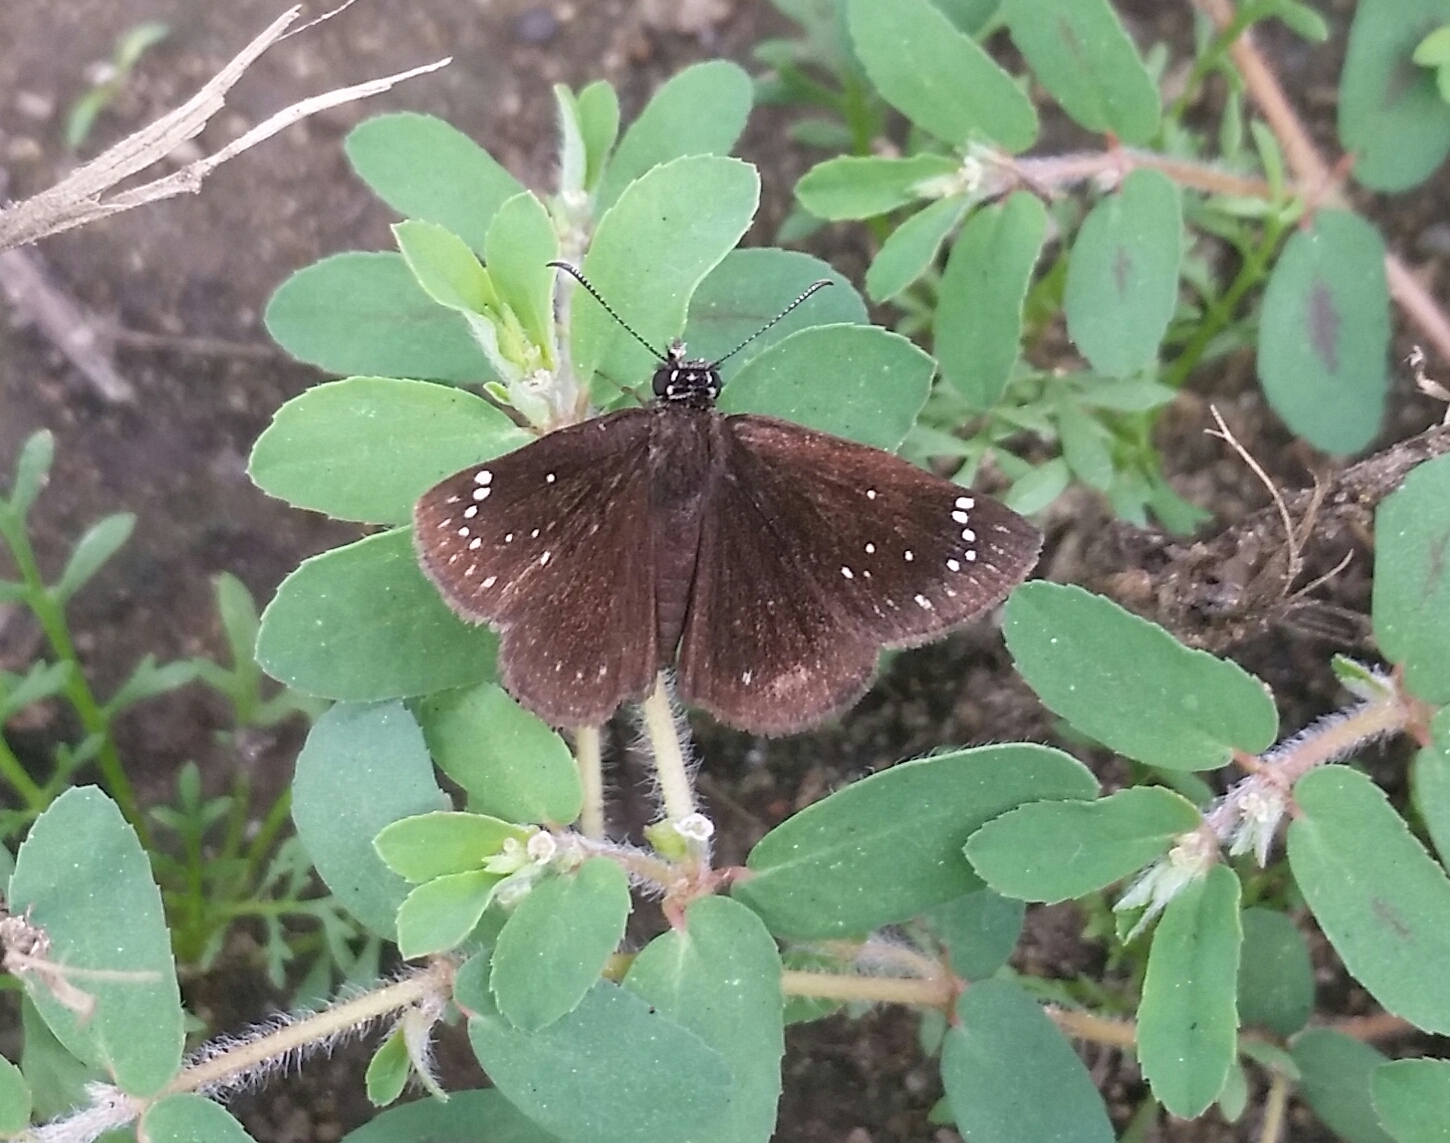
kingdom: Animalia
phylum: Arthropoda
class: Insecta
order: Lepidoptera
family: Hesperiidae
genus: Pholisora
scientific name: Pholisora catullus
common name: Common sootywing
